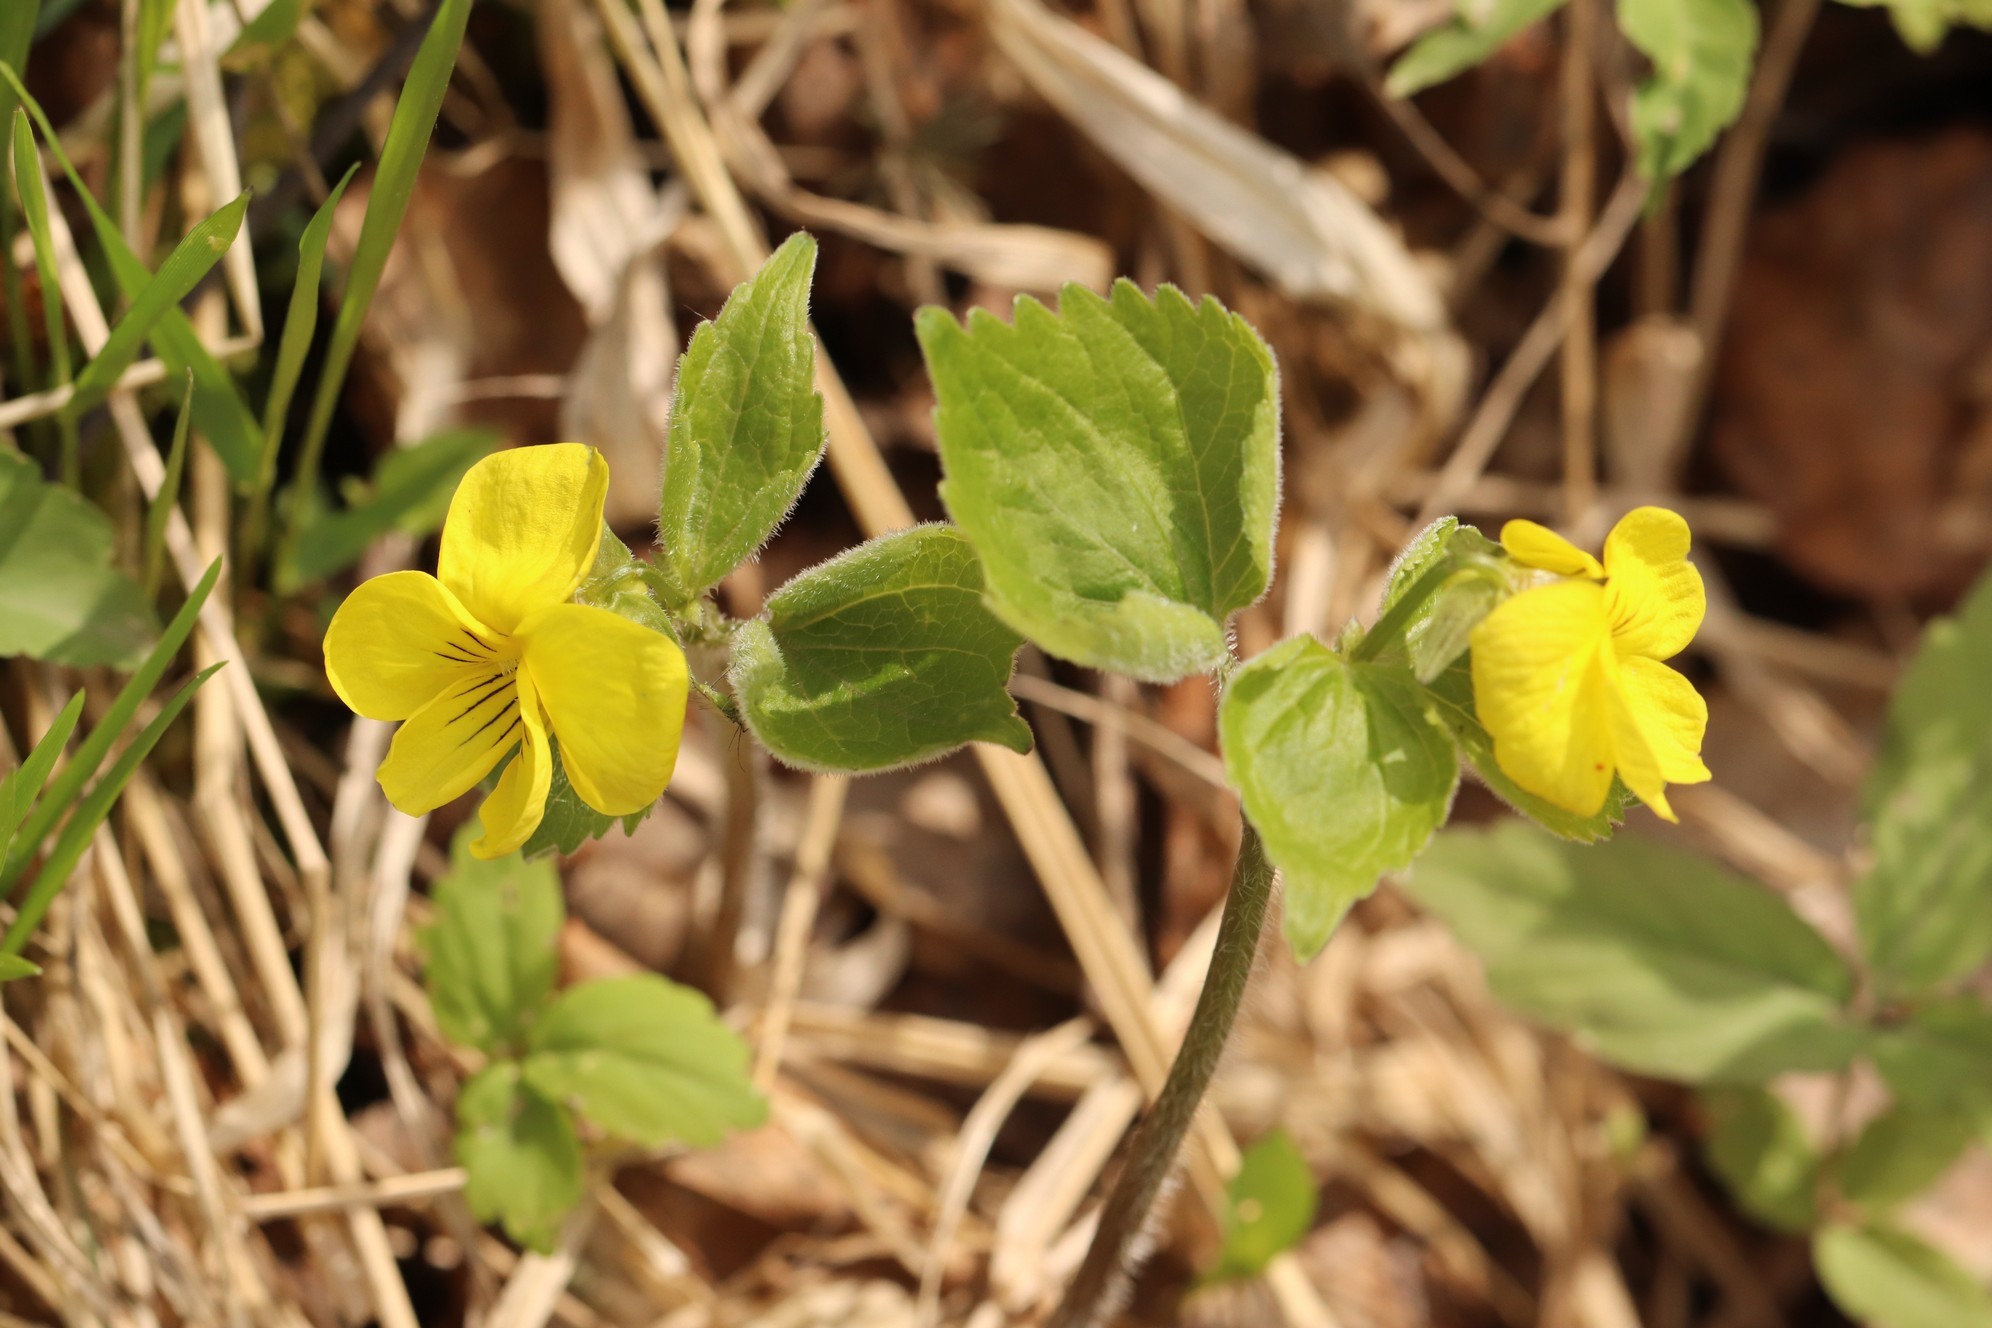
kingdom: Plantae
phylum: Tracheophyta
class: Magnoliopsida
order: Malpighiales
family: Violaceae
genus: Viola
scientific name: Viola uniflora
